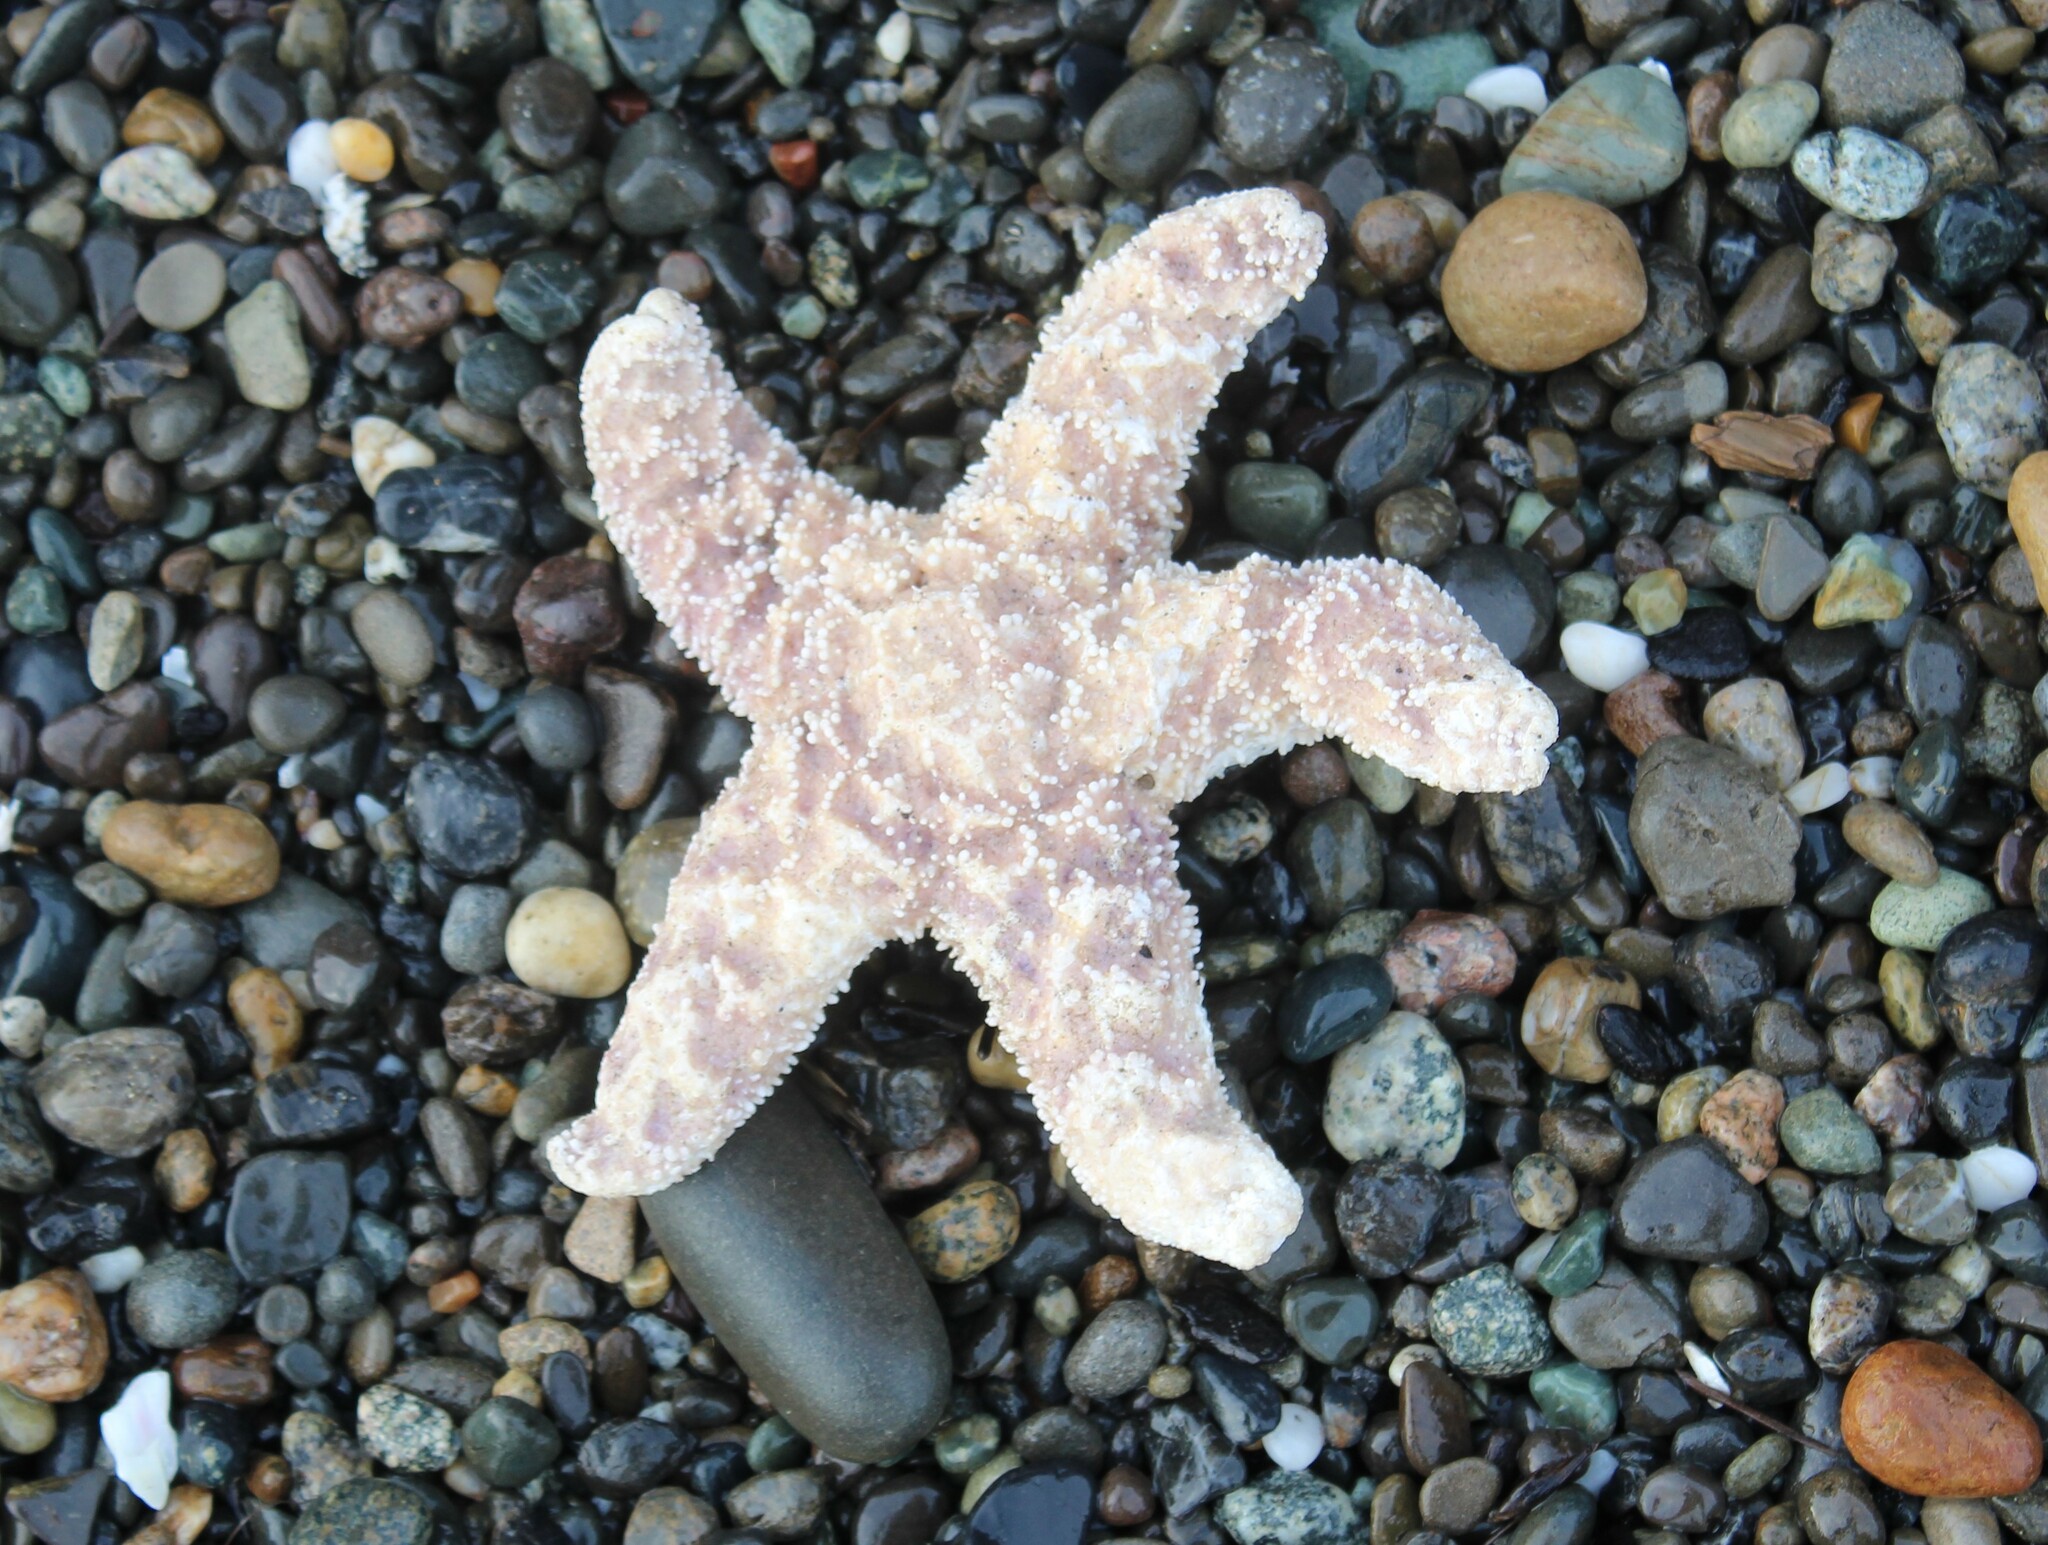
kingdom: Animalia
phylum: Echinodermata
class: Asteroidea
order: Forcipulatida
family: Asteriidae
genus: Pisaster
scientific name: Pisaster ochraceus
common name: Ochre stars
